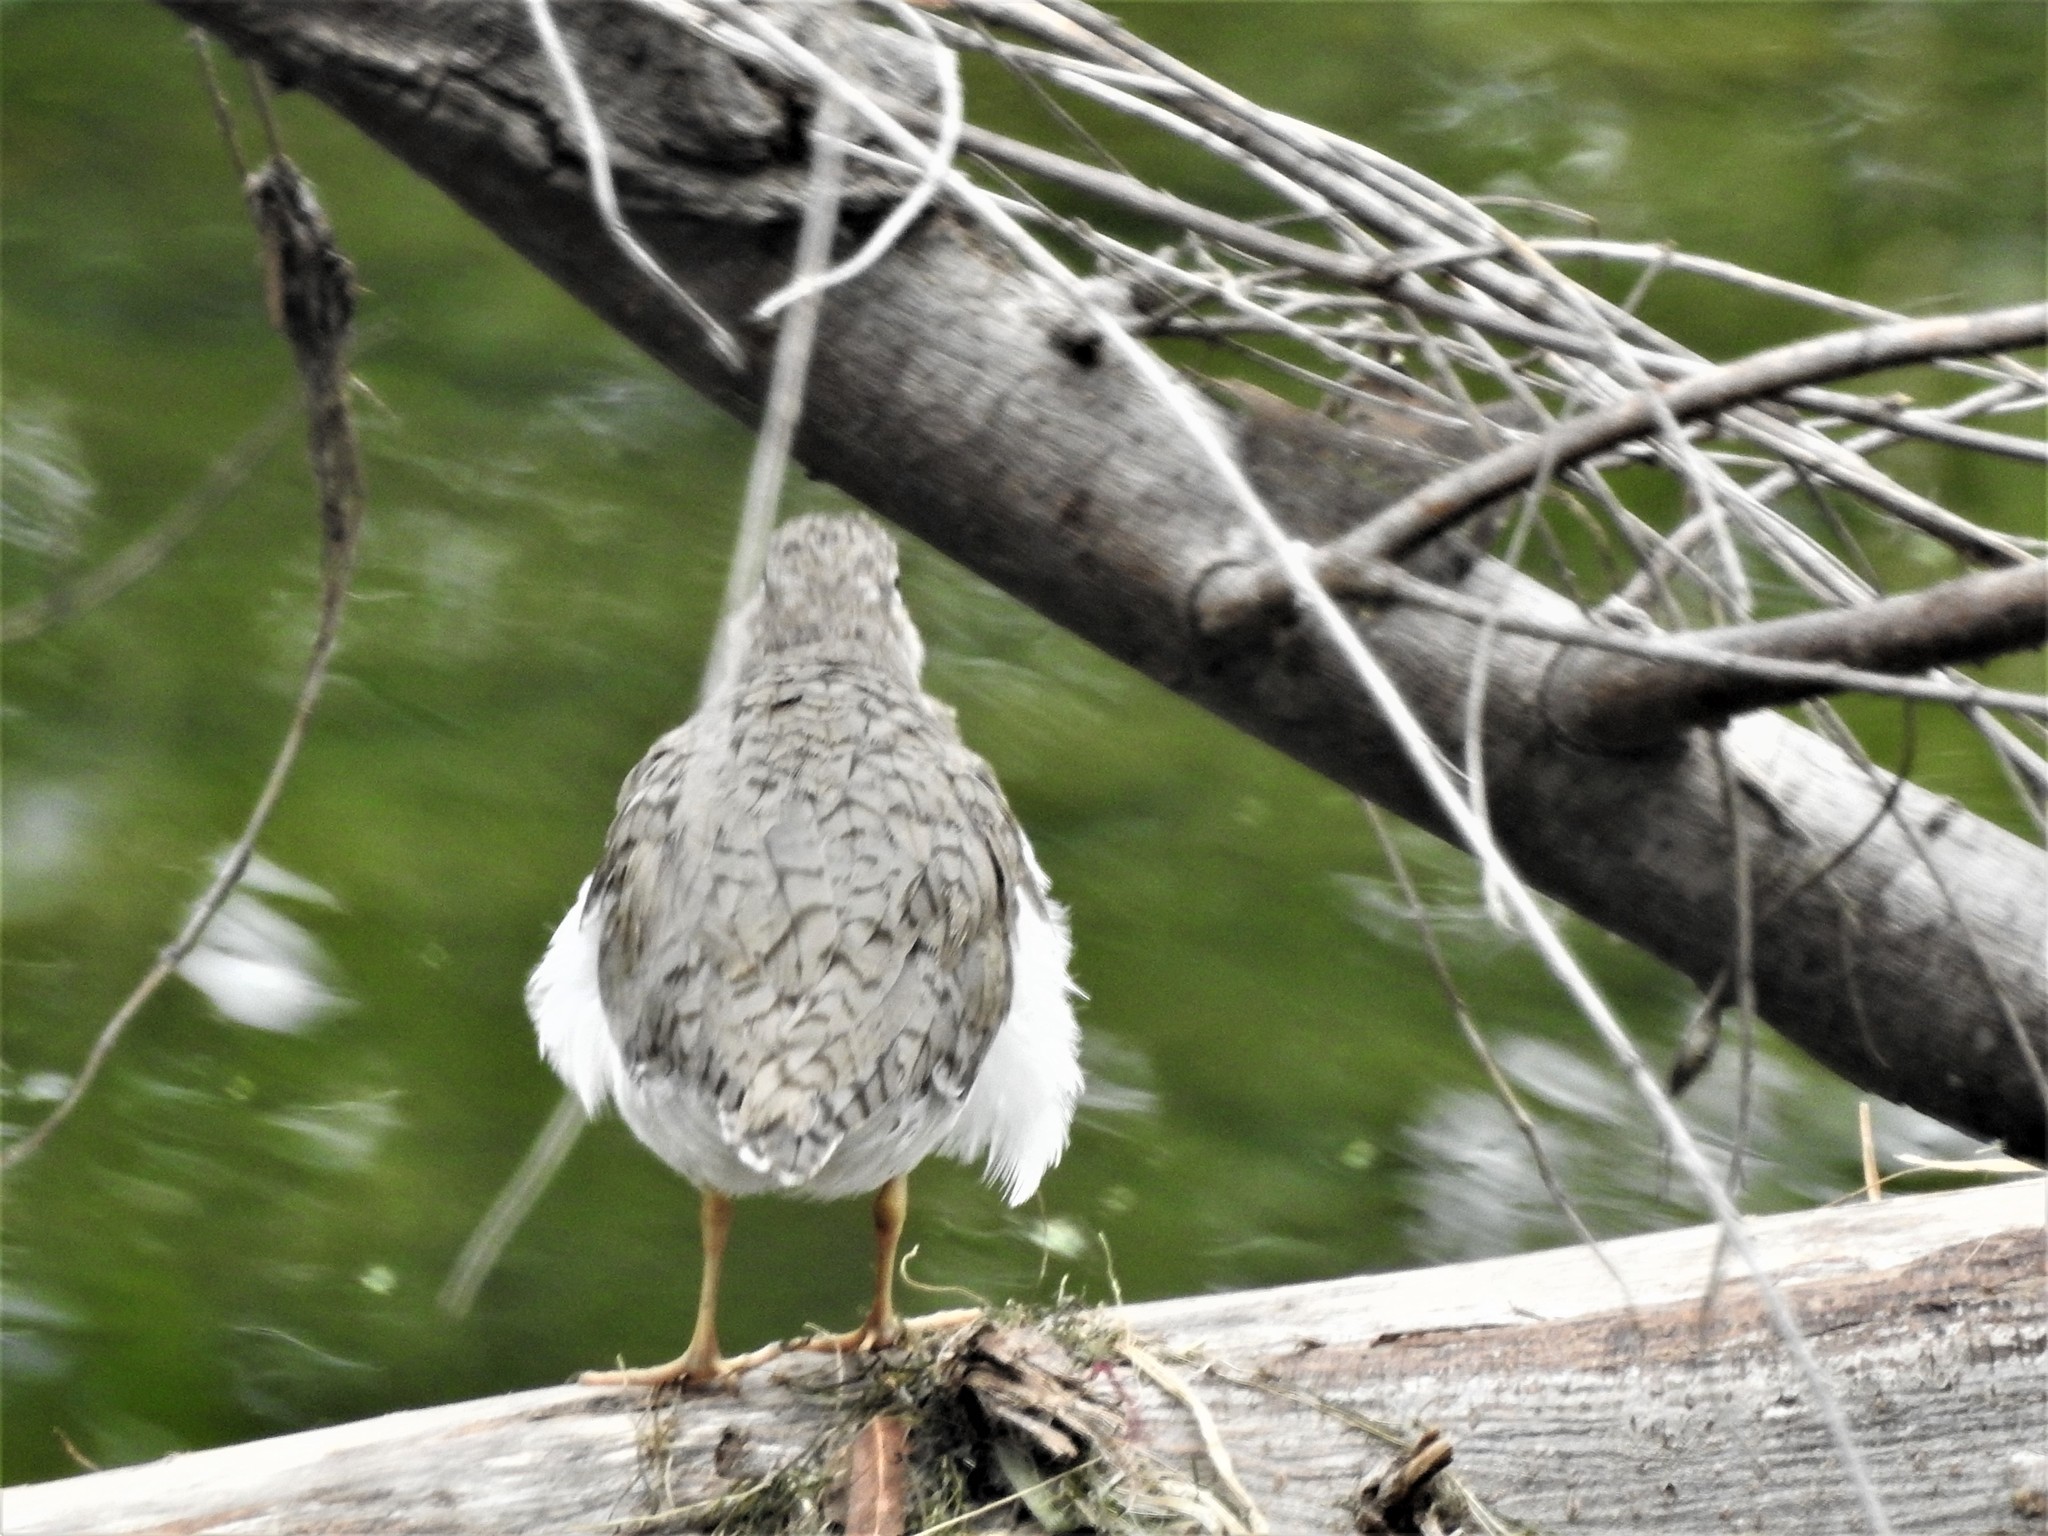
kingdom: Animalia
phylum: Chordata
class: Aves
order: Charadriiformes
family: Scolopacidae
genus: Actitis
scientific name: Actitis macularius
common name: Spotted sandpiper
